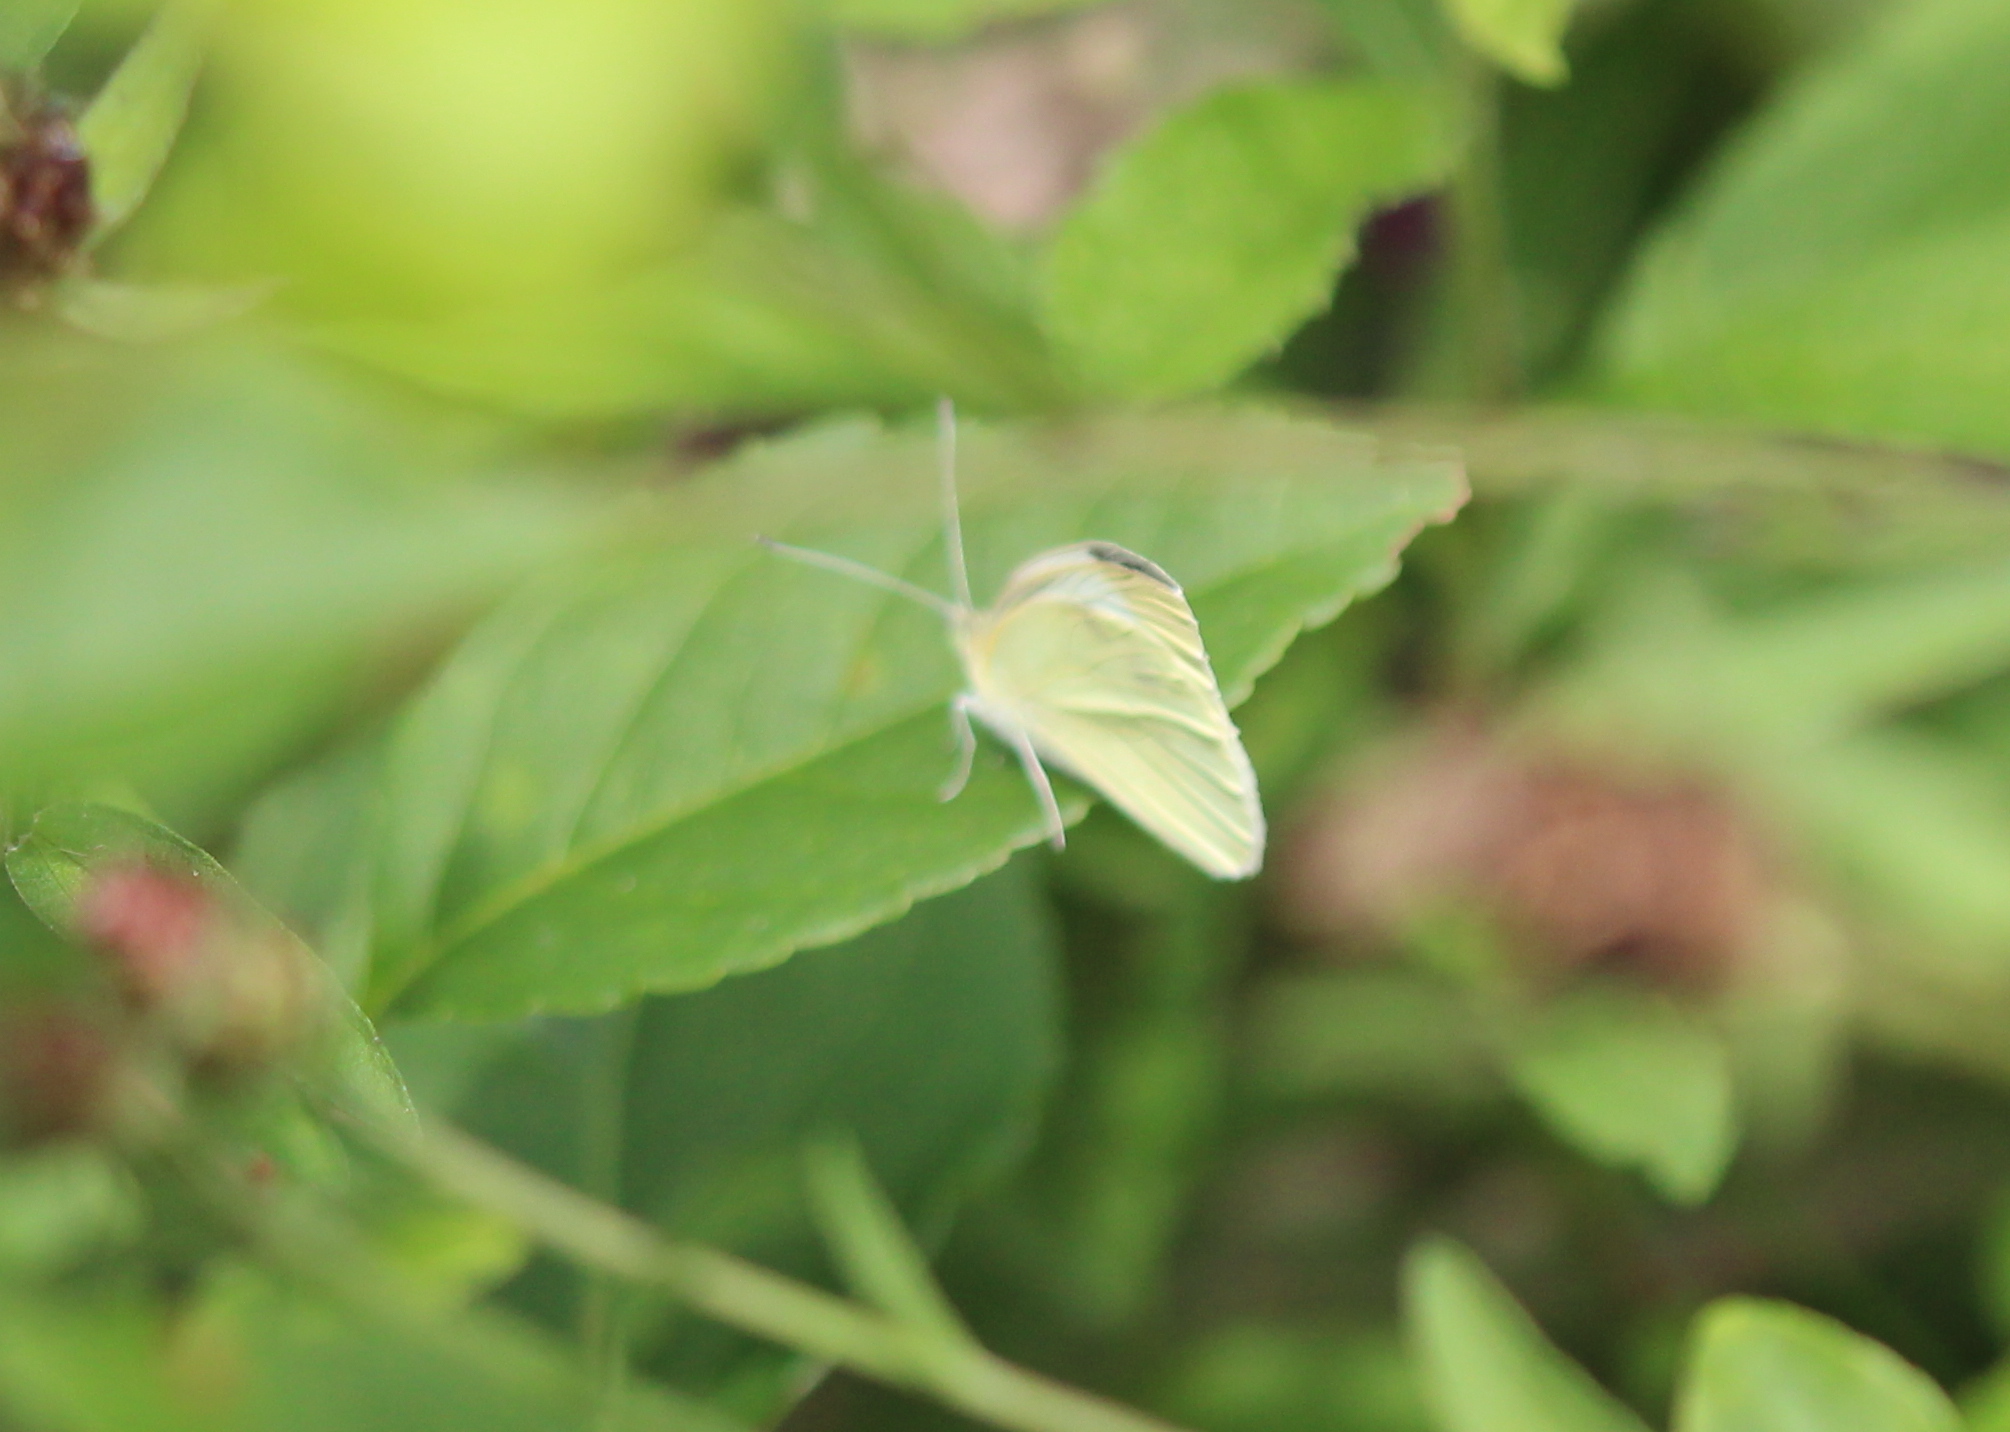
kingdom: Animalia
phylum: Arthropoda
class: Insecta
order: Lepidoptera
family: Pieridae
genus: Pieris
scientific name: Pieris rapae
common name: Small white
